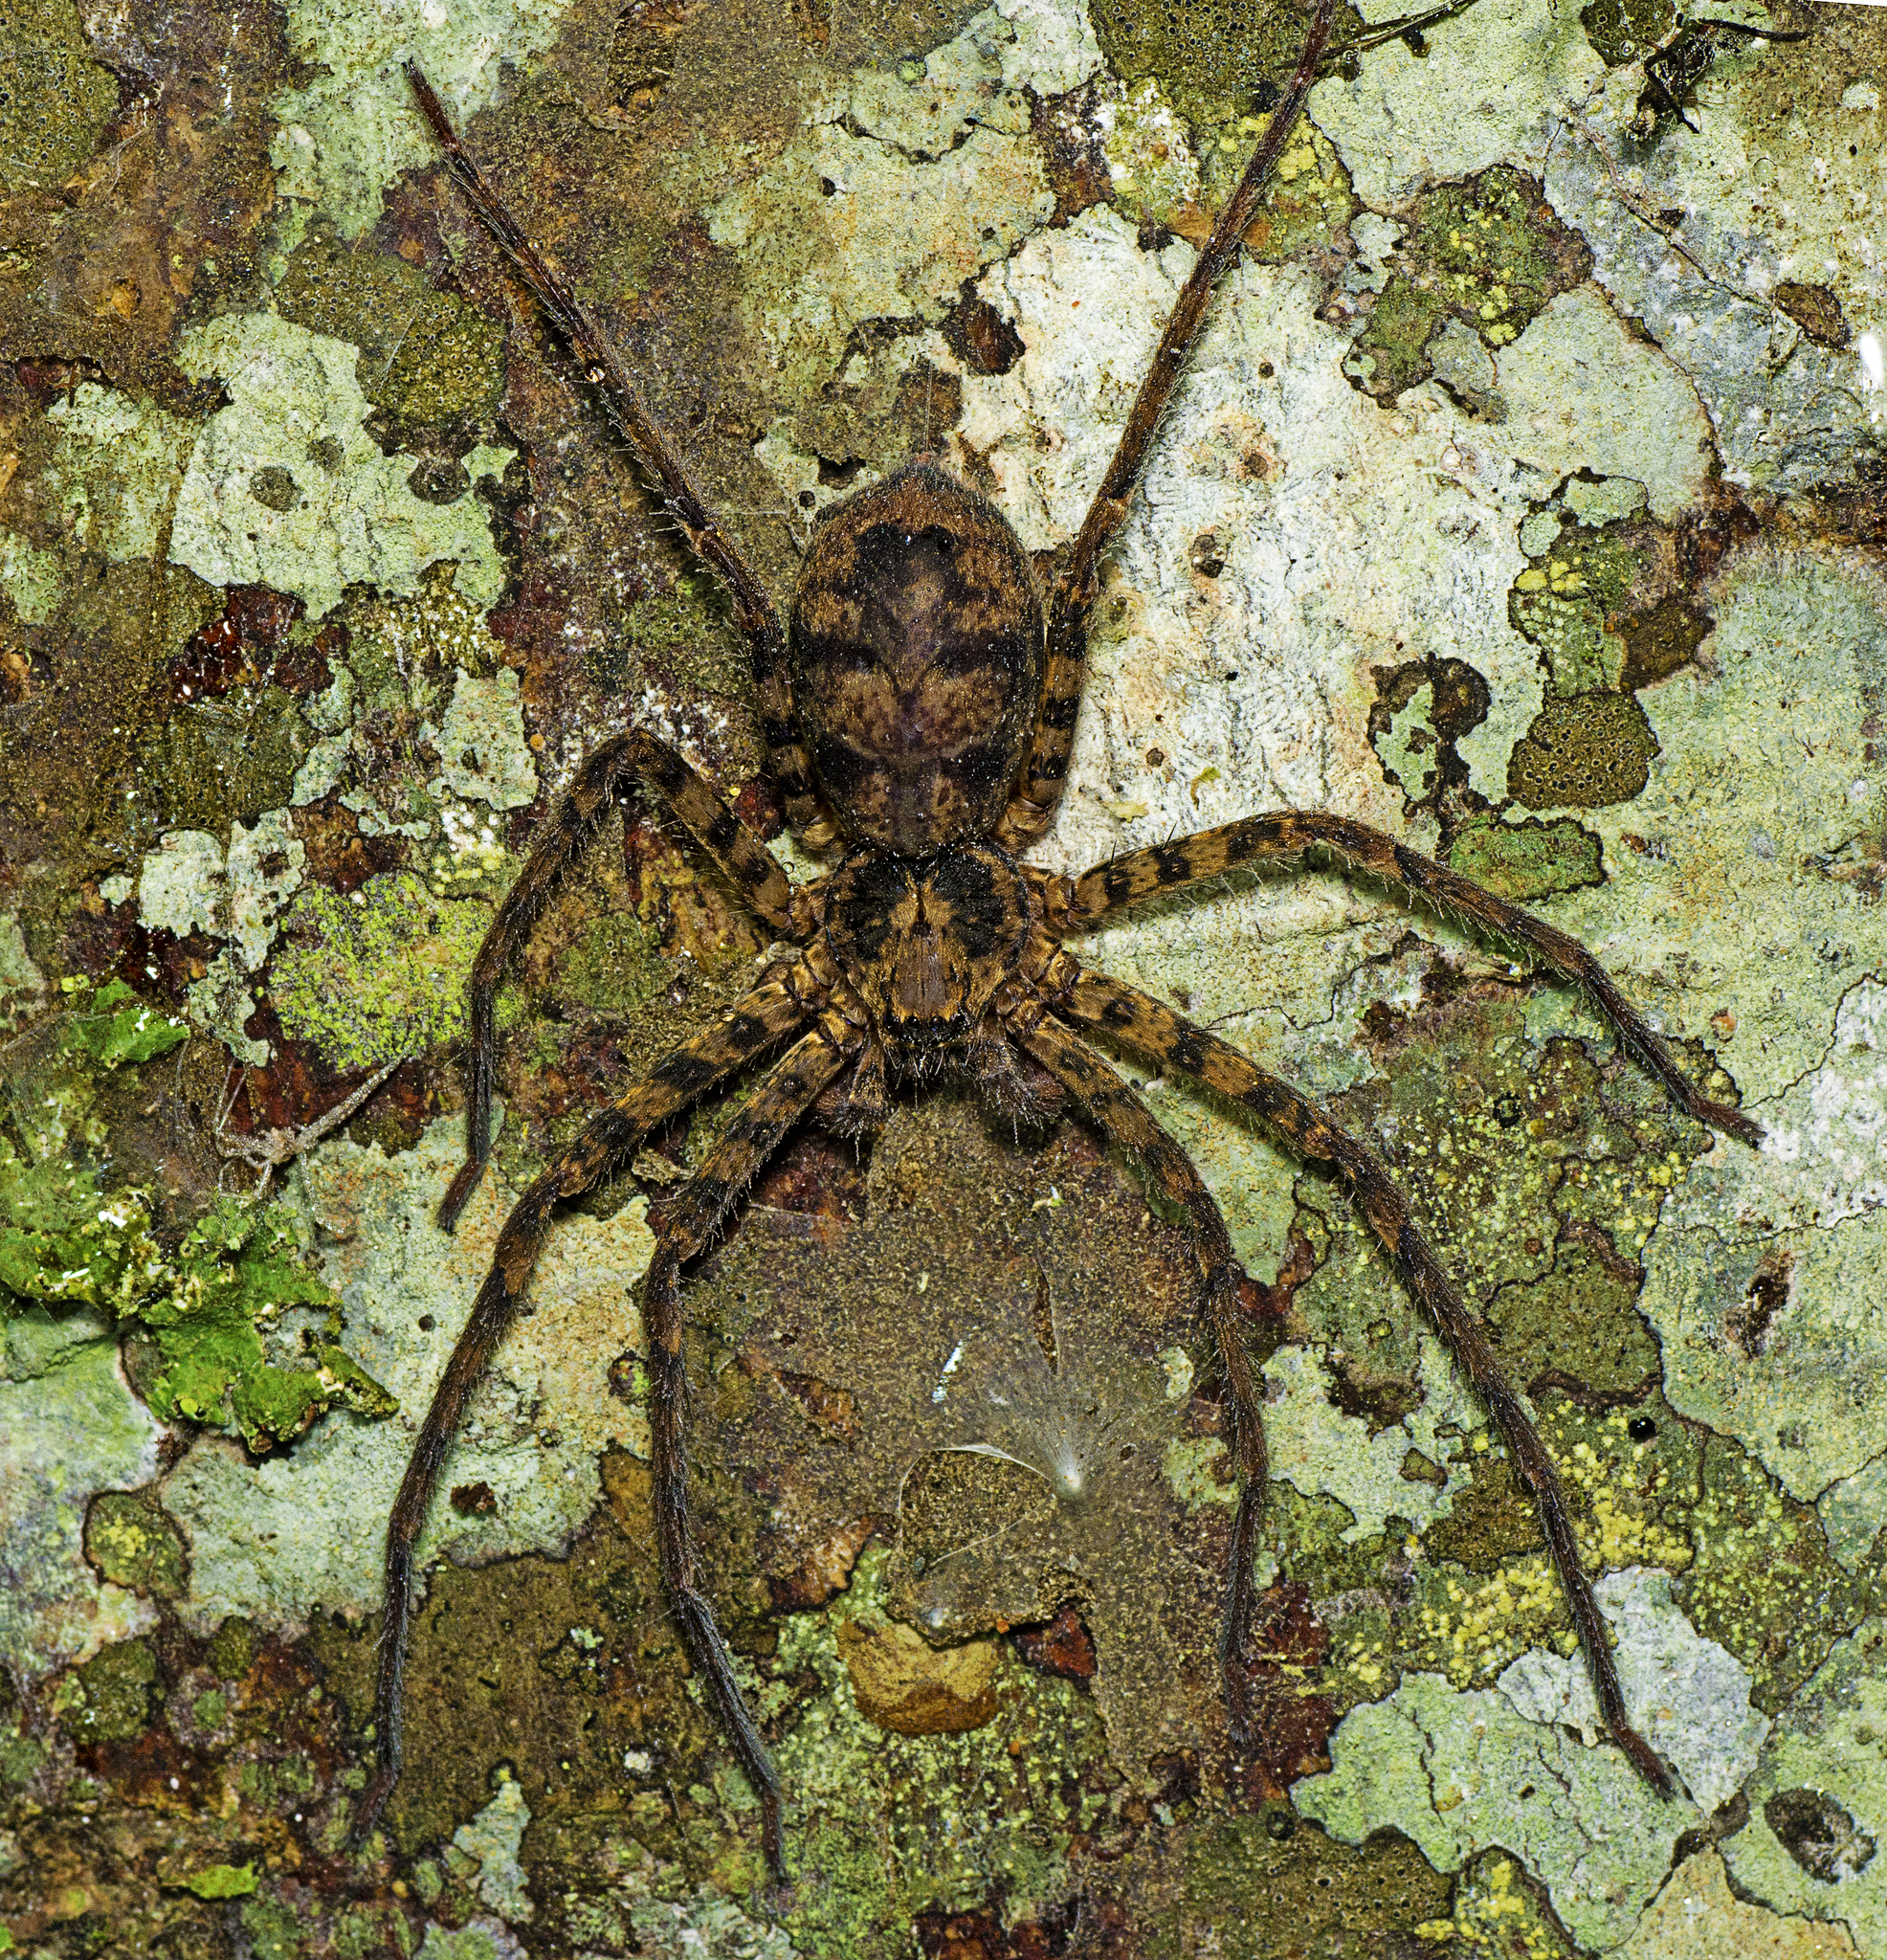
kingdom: Animalia
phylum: Arthropoda
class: Arachnida
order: Araneae
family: Sparassidae
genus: Heteropoda
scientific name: Heteropoda procera
